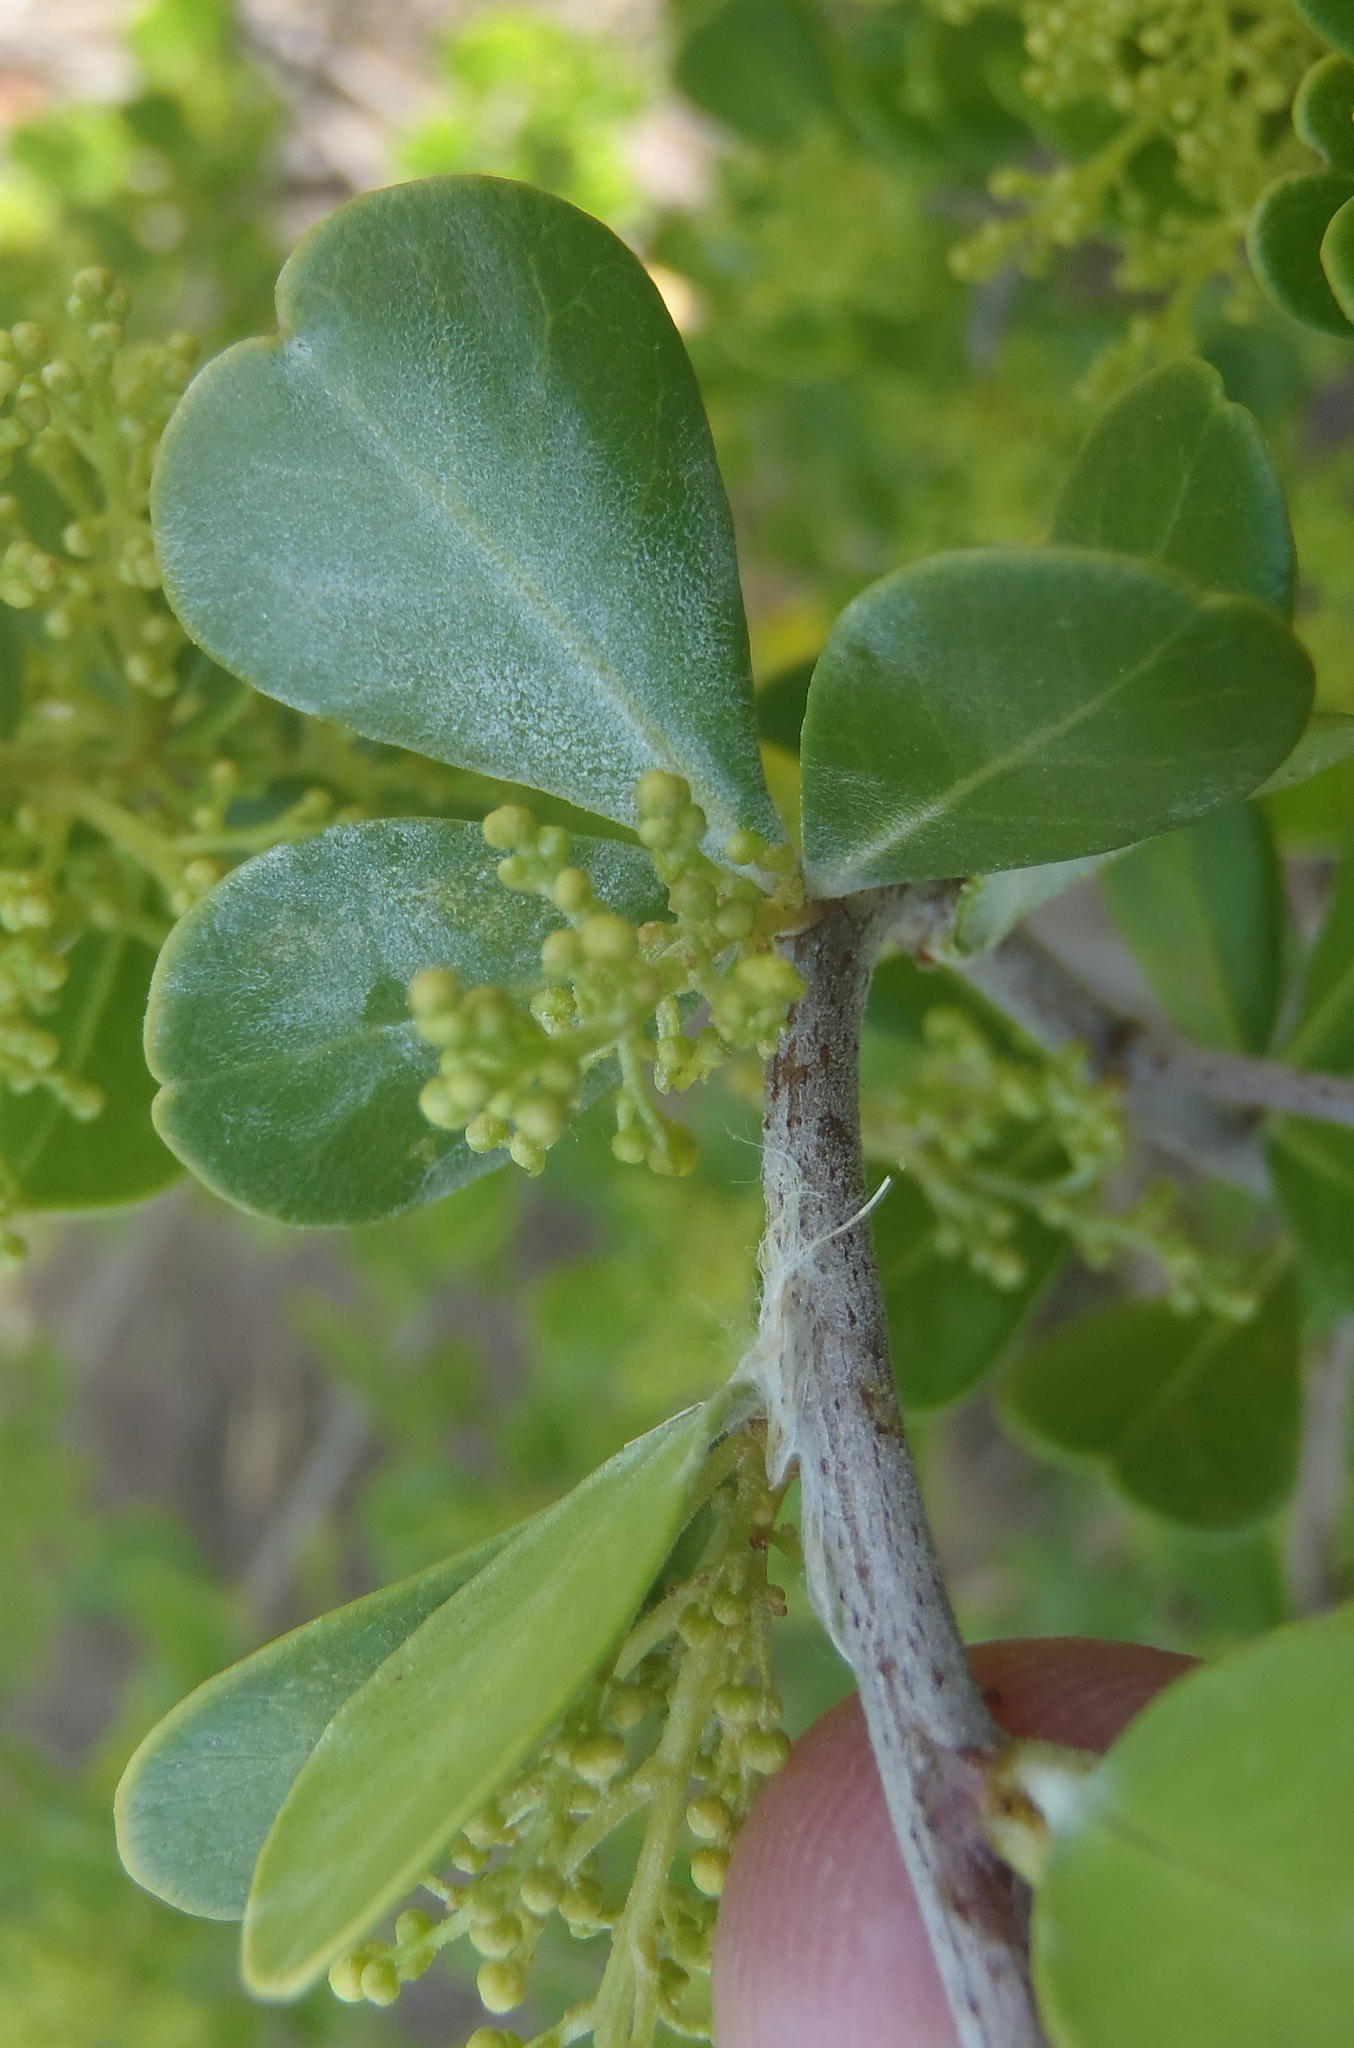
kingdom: Plantae
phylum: Tracheophyta
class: Magnoliopsida
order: Sapindales
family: Anacardiaceae
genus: Searsia
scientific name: Searsia glauca
